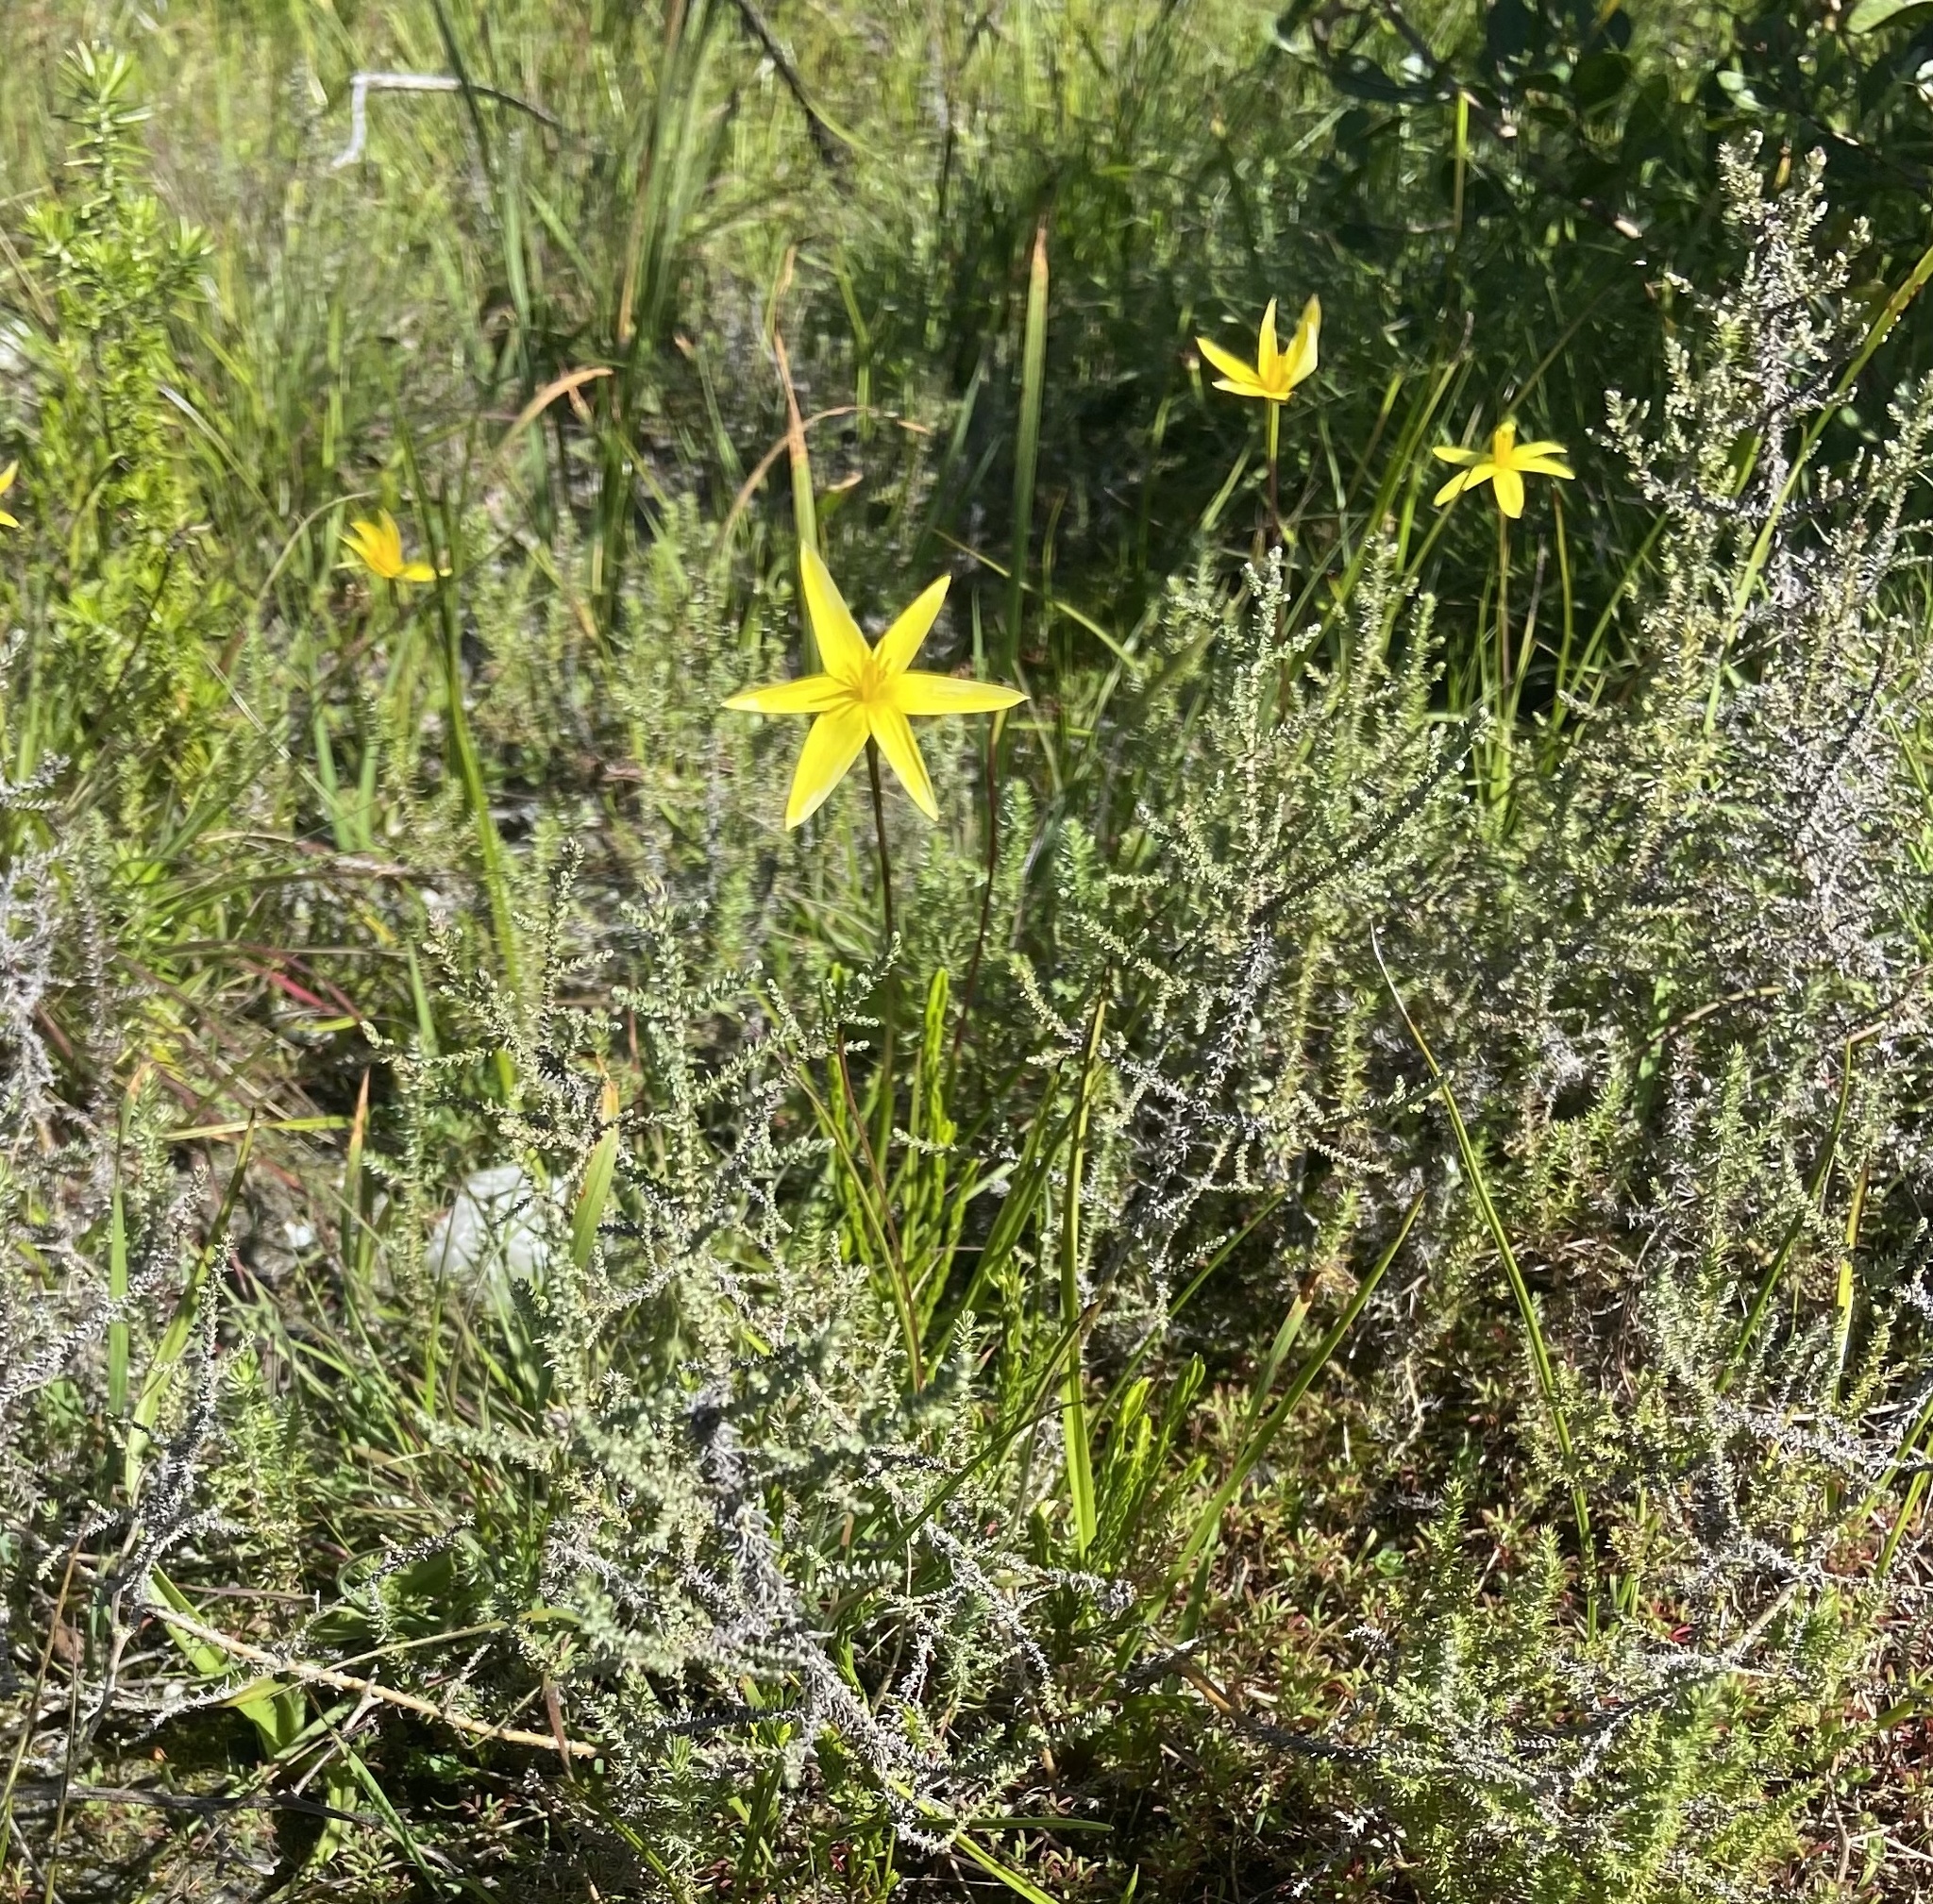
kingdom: Plantae
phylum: Tracheophyta
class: Liliopsida
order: Asparagales
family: Hypoxidaceae
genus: Pauridia
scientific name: Pauridia capensis
